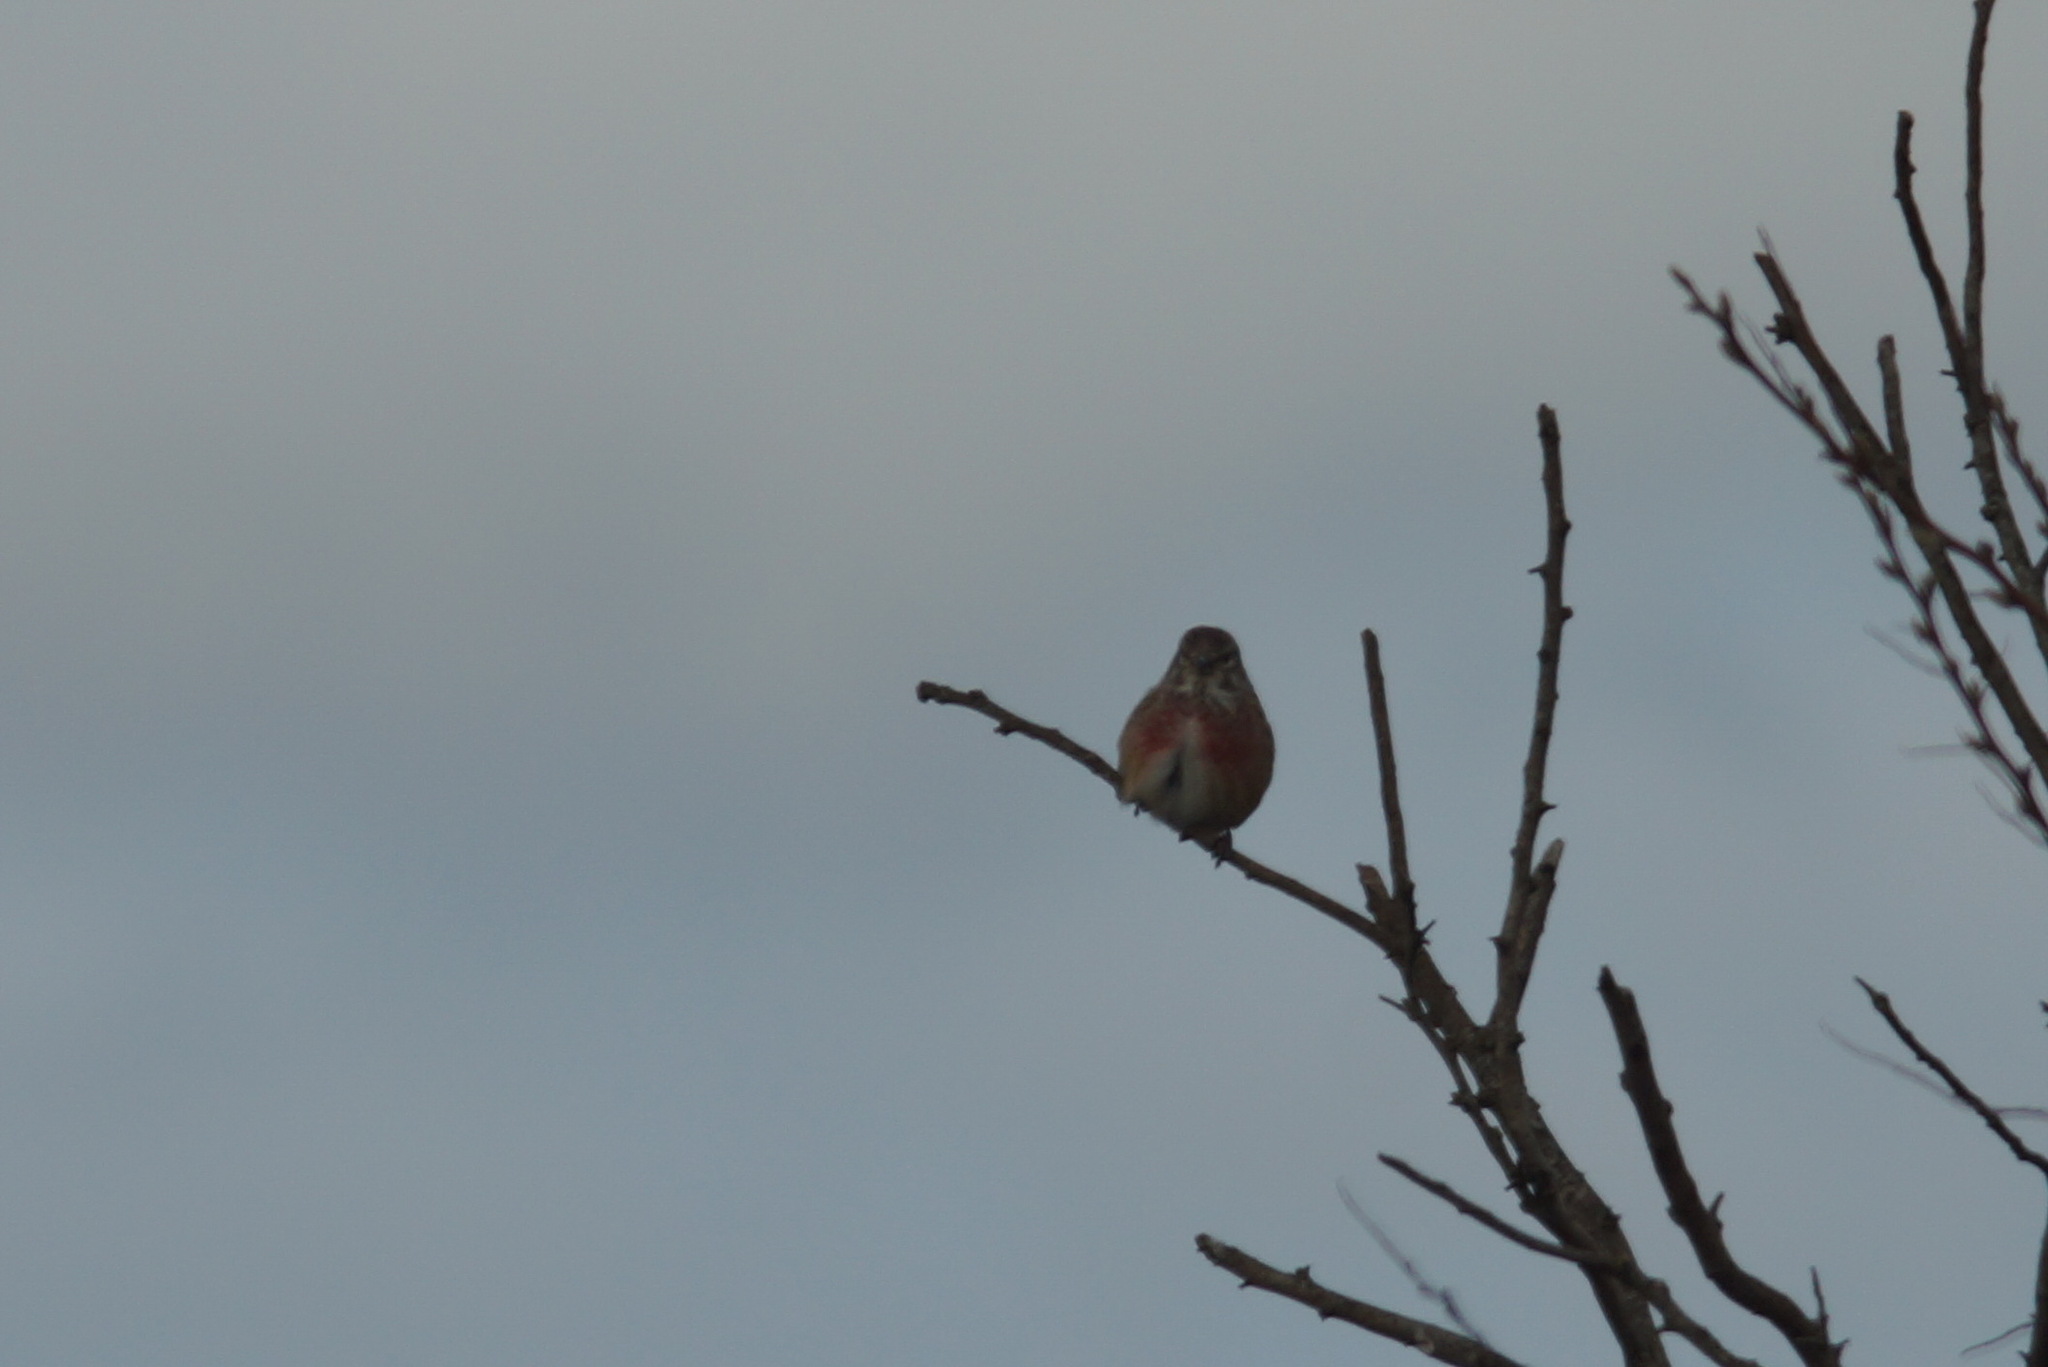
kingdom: Animalia
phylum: Chordata
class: Aves
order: Passeriformes
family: Fringillidae
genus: Linaria
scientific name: Linaria cannabina
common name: Common linnet
